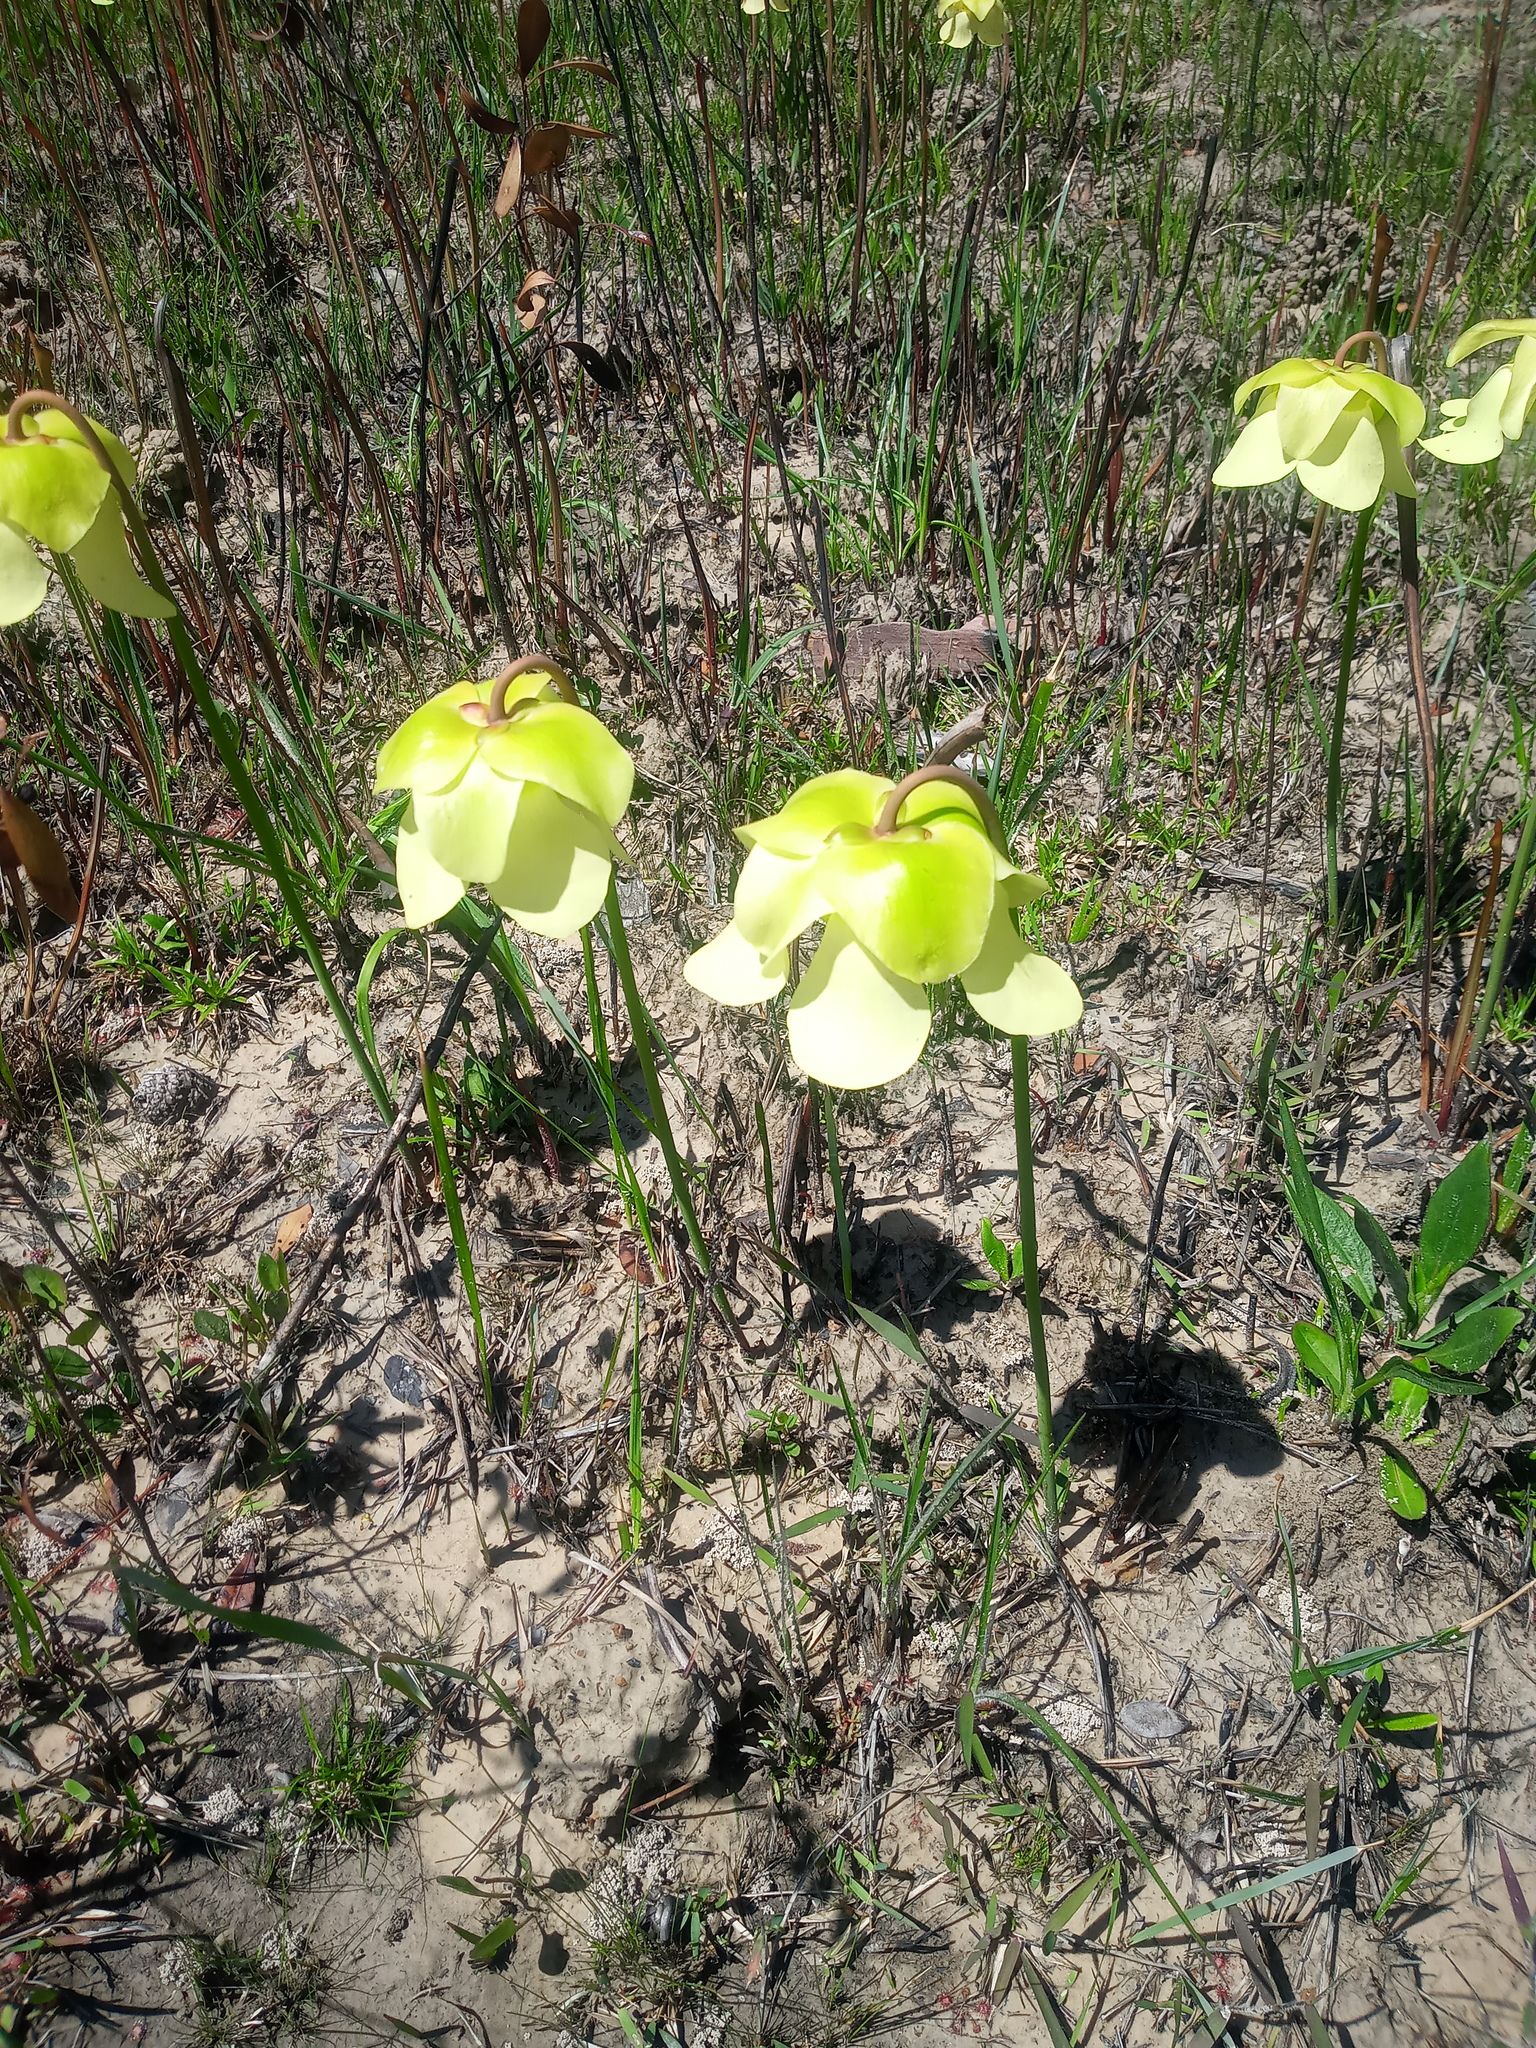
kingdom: Plantae
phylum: Tracheophyta
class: Magnoliopsida
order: Ericales
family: Sarraceniaceae
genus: Sarracenia
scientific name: Sarracenia alata
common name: Yellow trumpets
